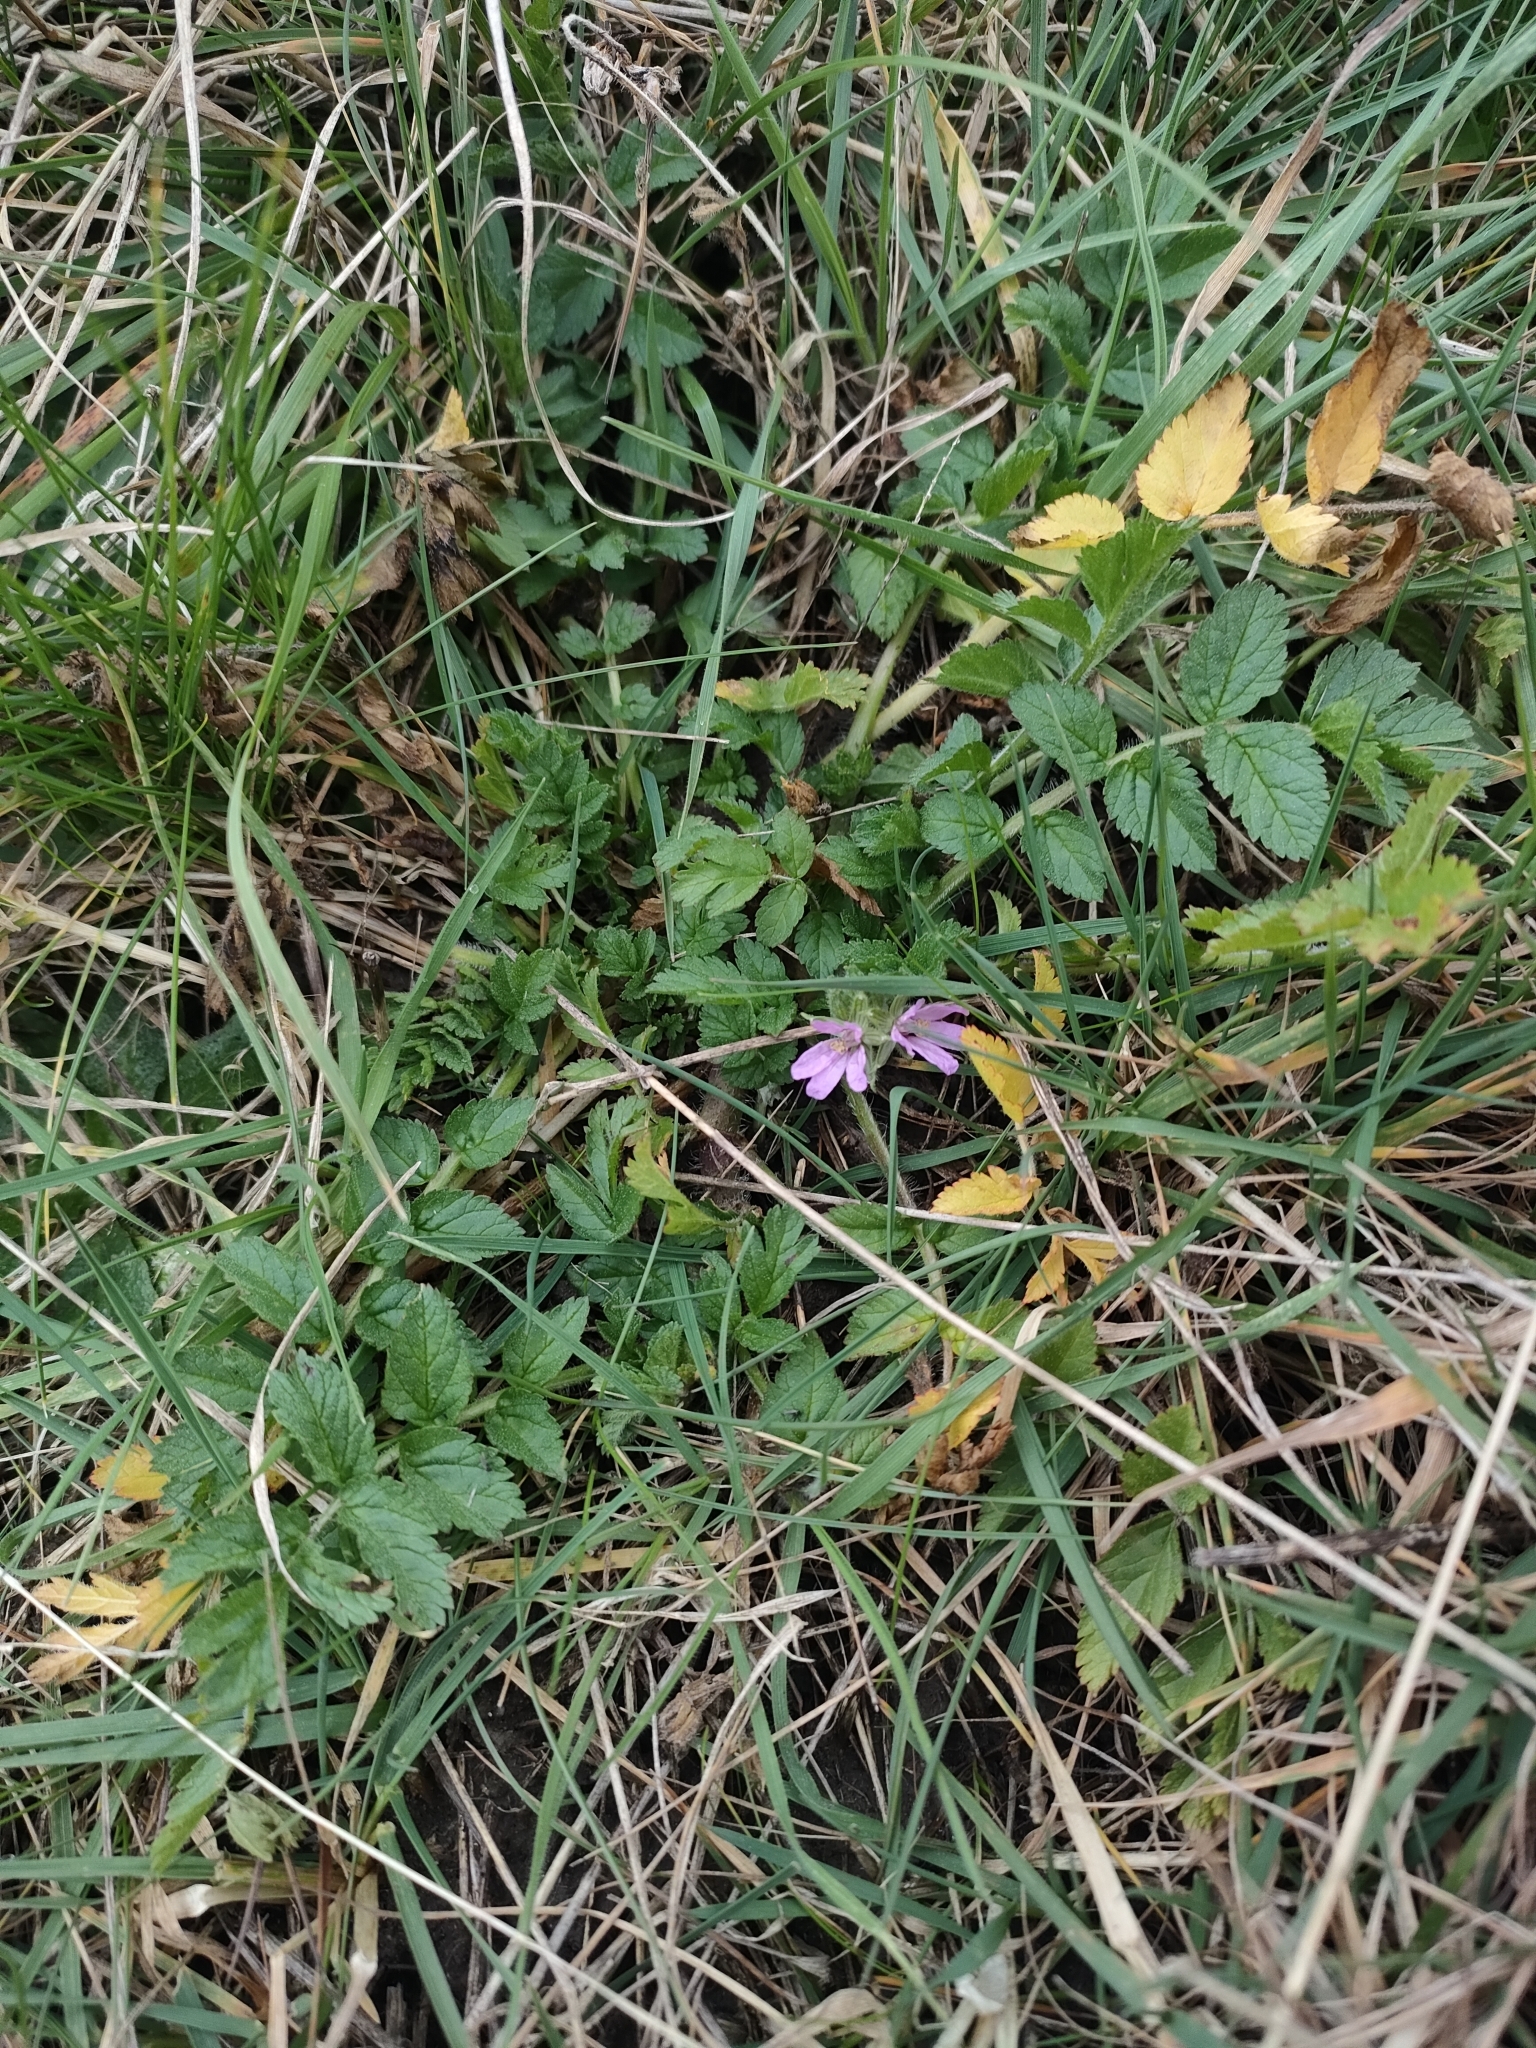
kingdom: Plantae
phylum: Tracheophyta
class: Magnoliopsida
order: Geraniales
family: Geraniaceae
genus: Erodium
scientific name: Erodium moschatum
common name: Musk stork's-bill
